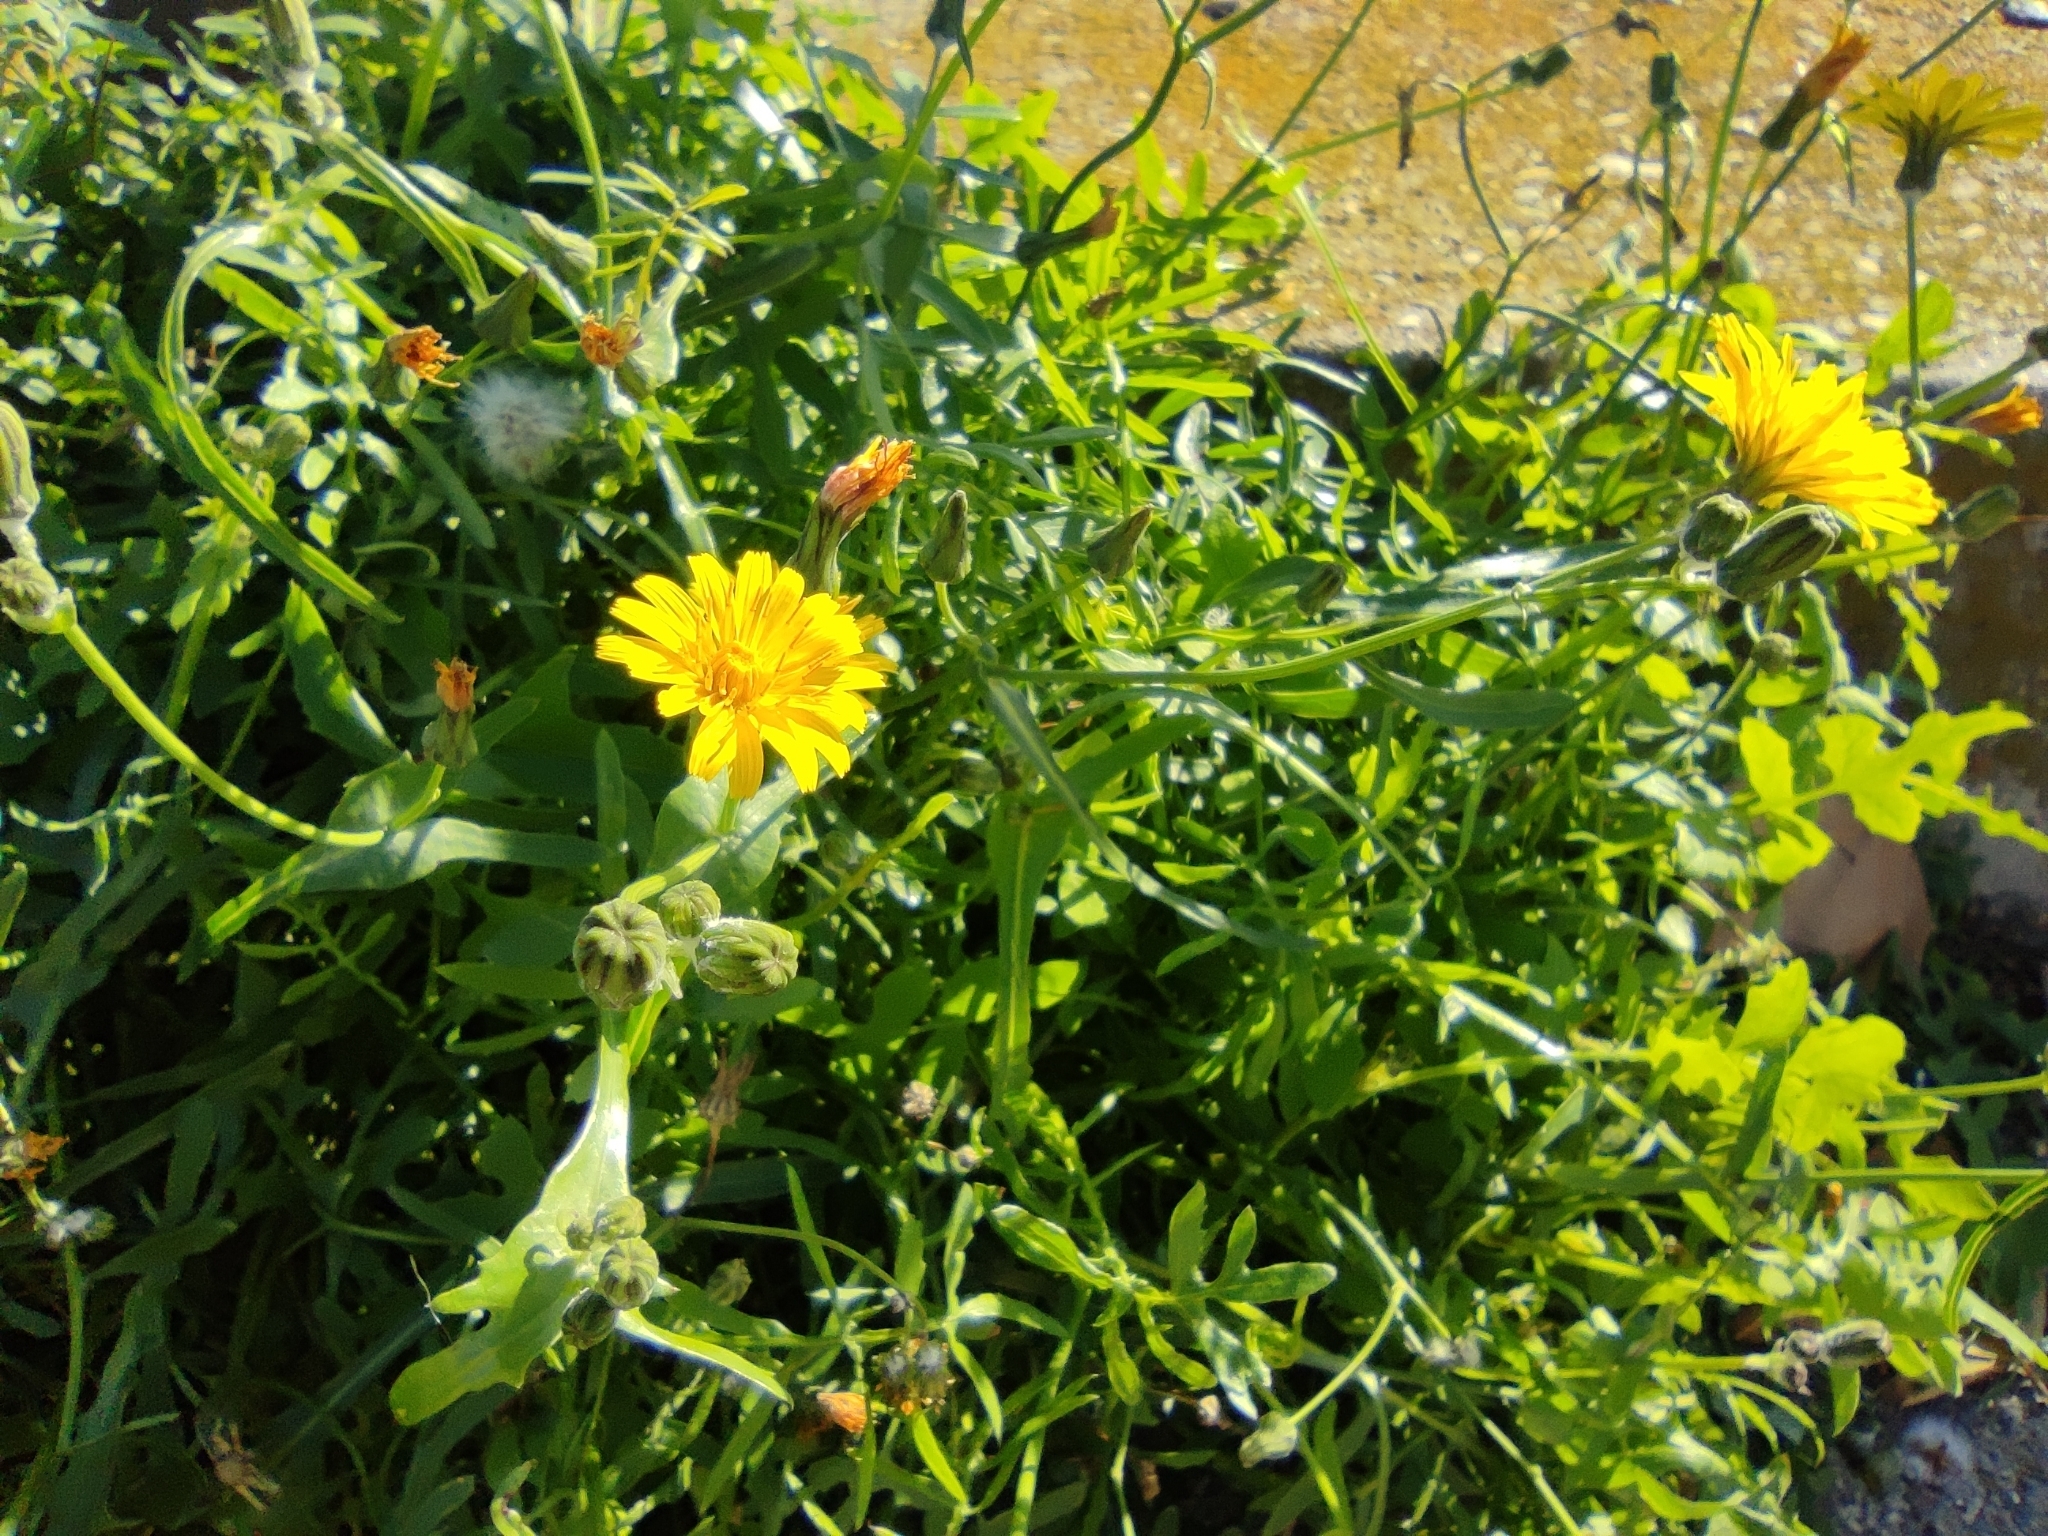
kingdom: Plantae
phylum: Tracheophyta
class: Magnoliopsida
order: Asterales
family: Asteraceae
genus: Sonchus
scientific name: Sonchus tenerrimus
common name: Clammy sowthistle
